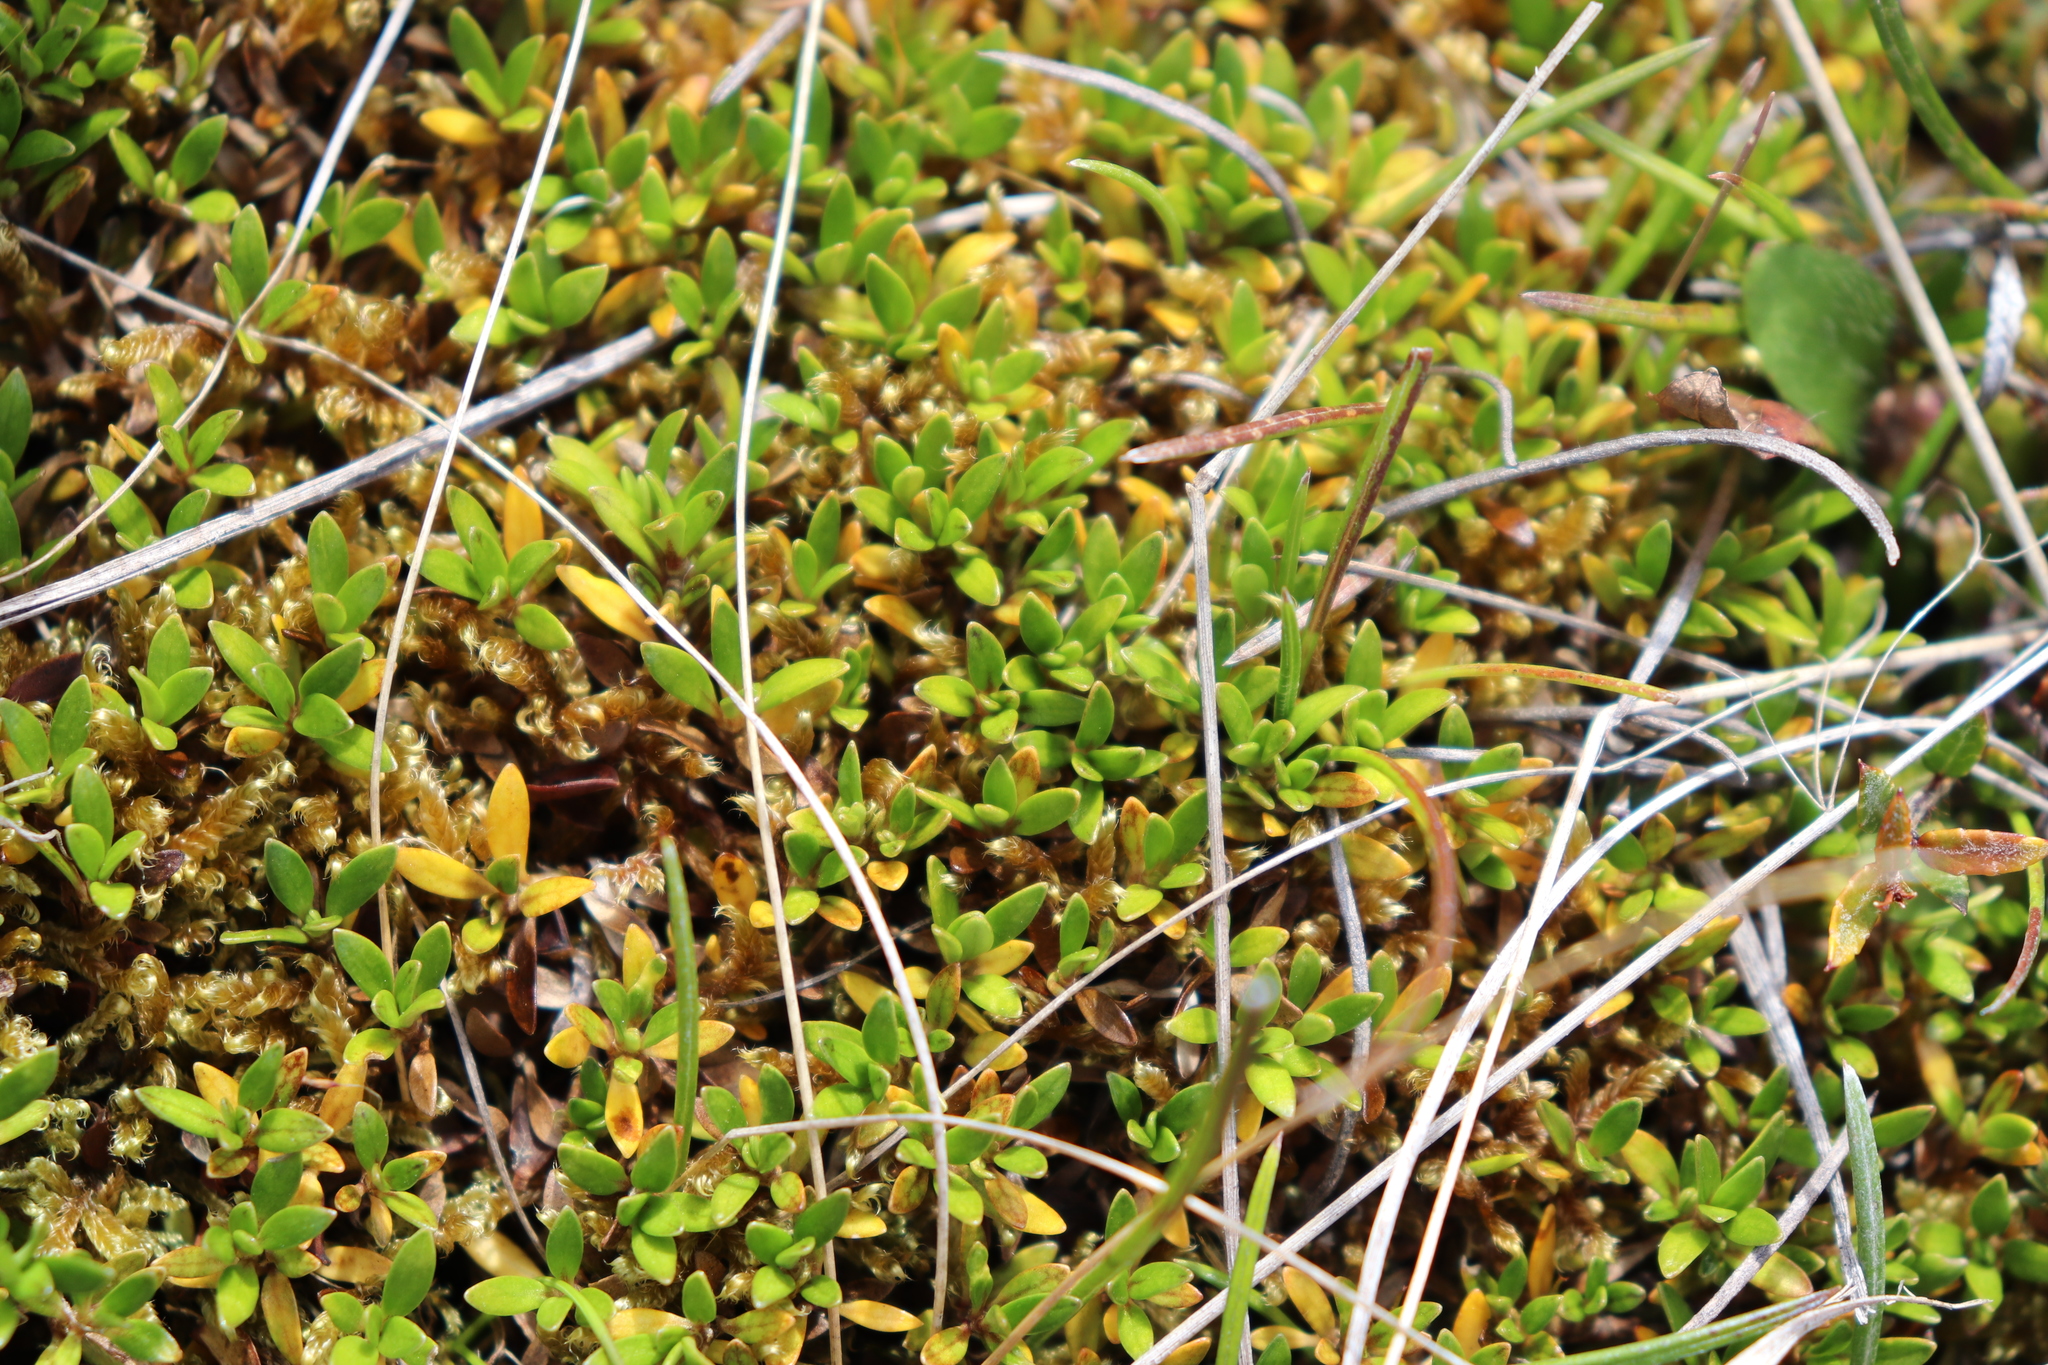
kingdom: Plantae
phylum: Tracheophyta
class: Magnoliopsida
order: Gentianales
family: Rubiaceae
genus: Coprosma
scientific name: Coprosma perpusilla
